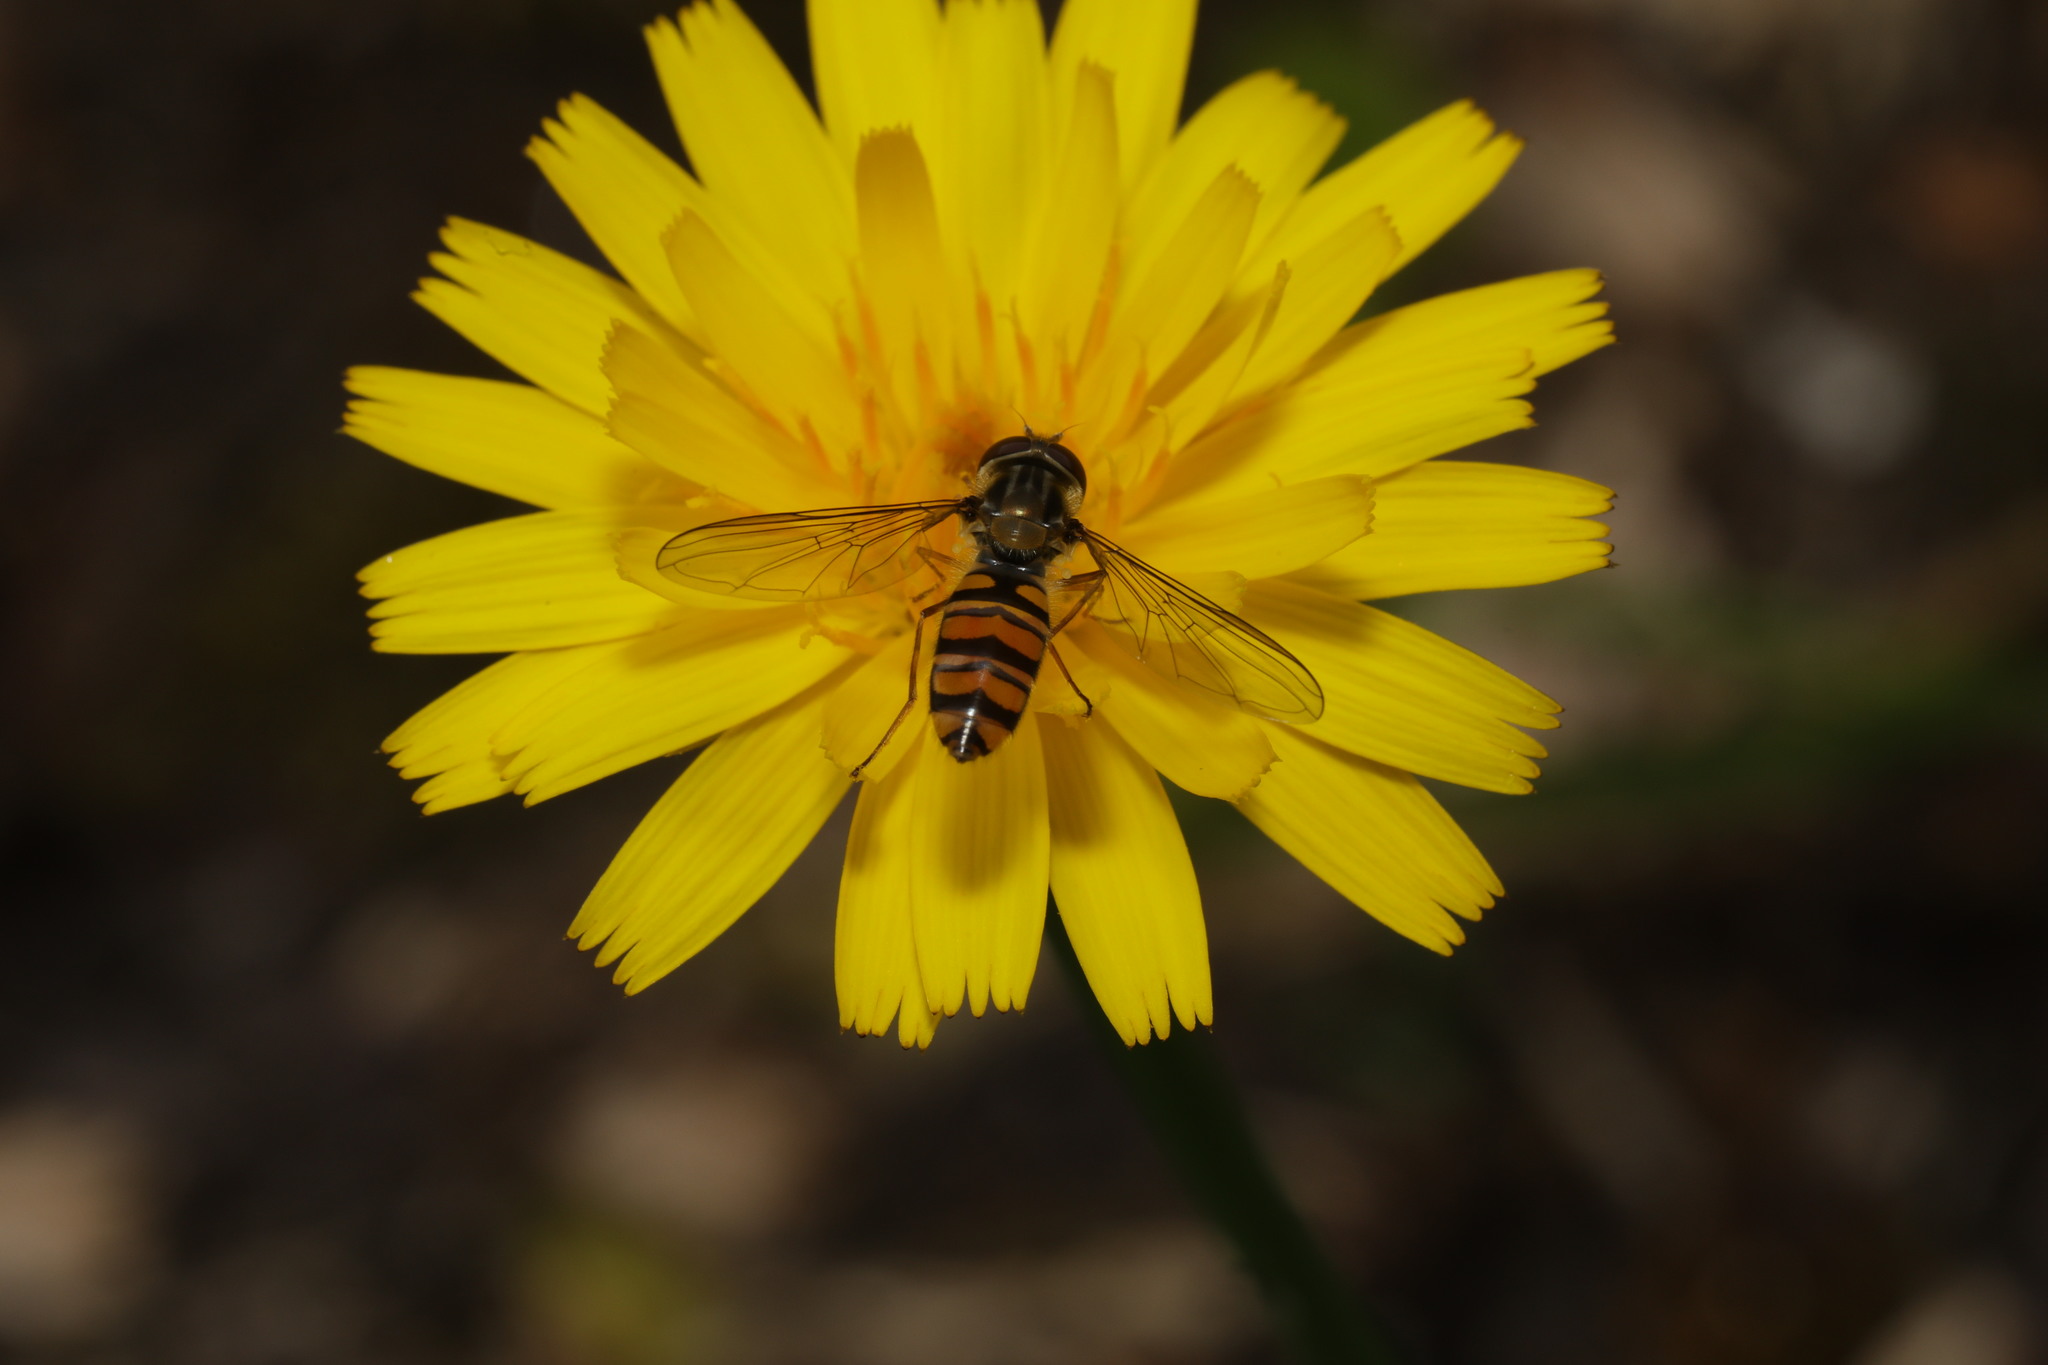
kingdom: Animalia
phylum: Arthropoda
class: Insecta
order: Diptera
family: Syrphidae
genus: Episyrphus
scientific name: Episyrphus balteatus
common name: Marmalade hoverfly
